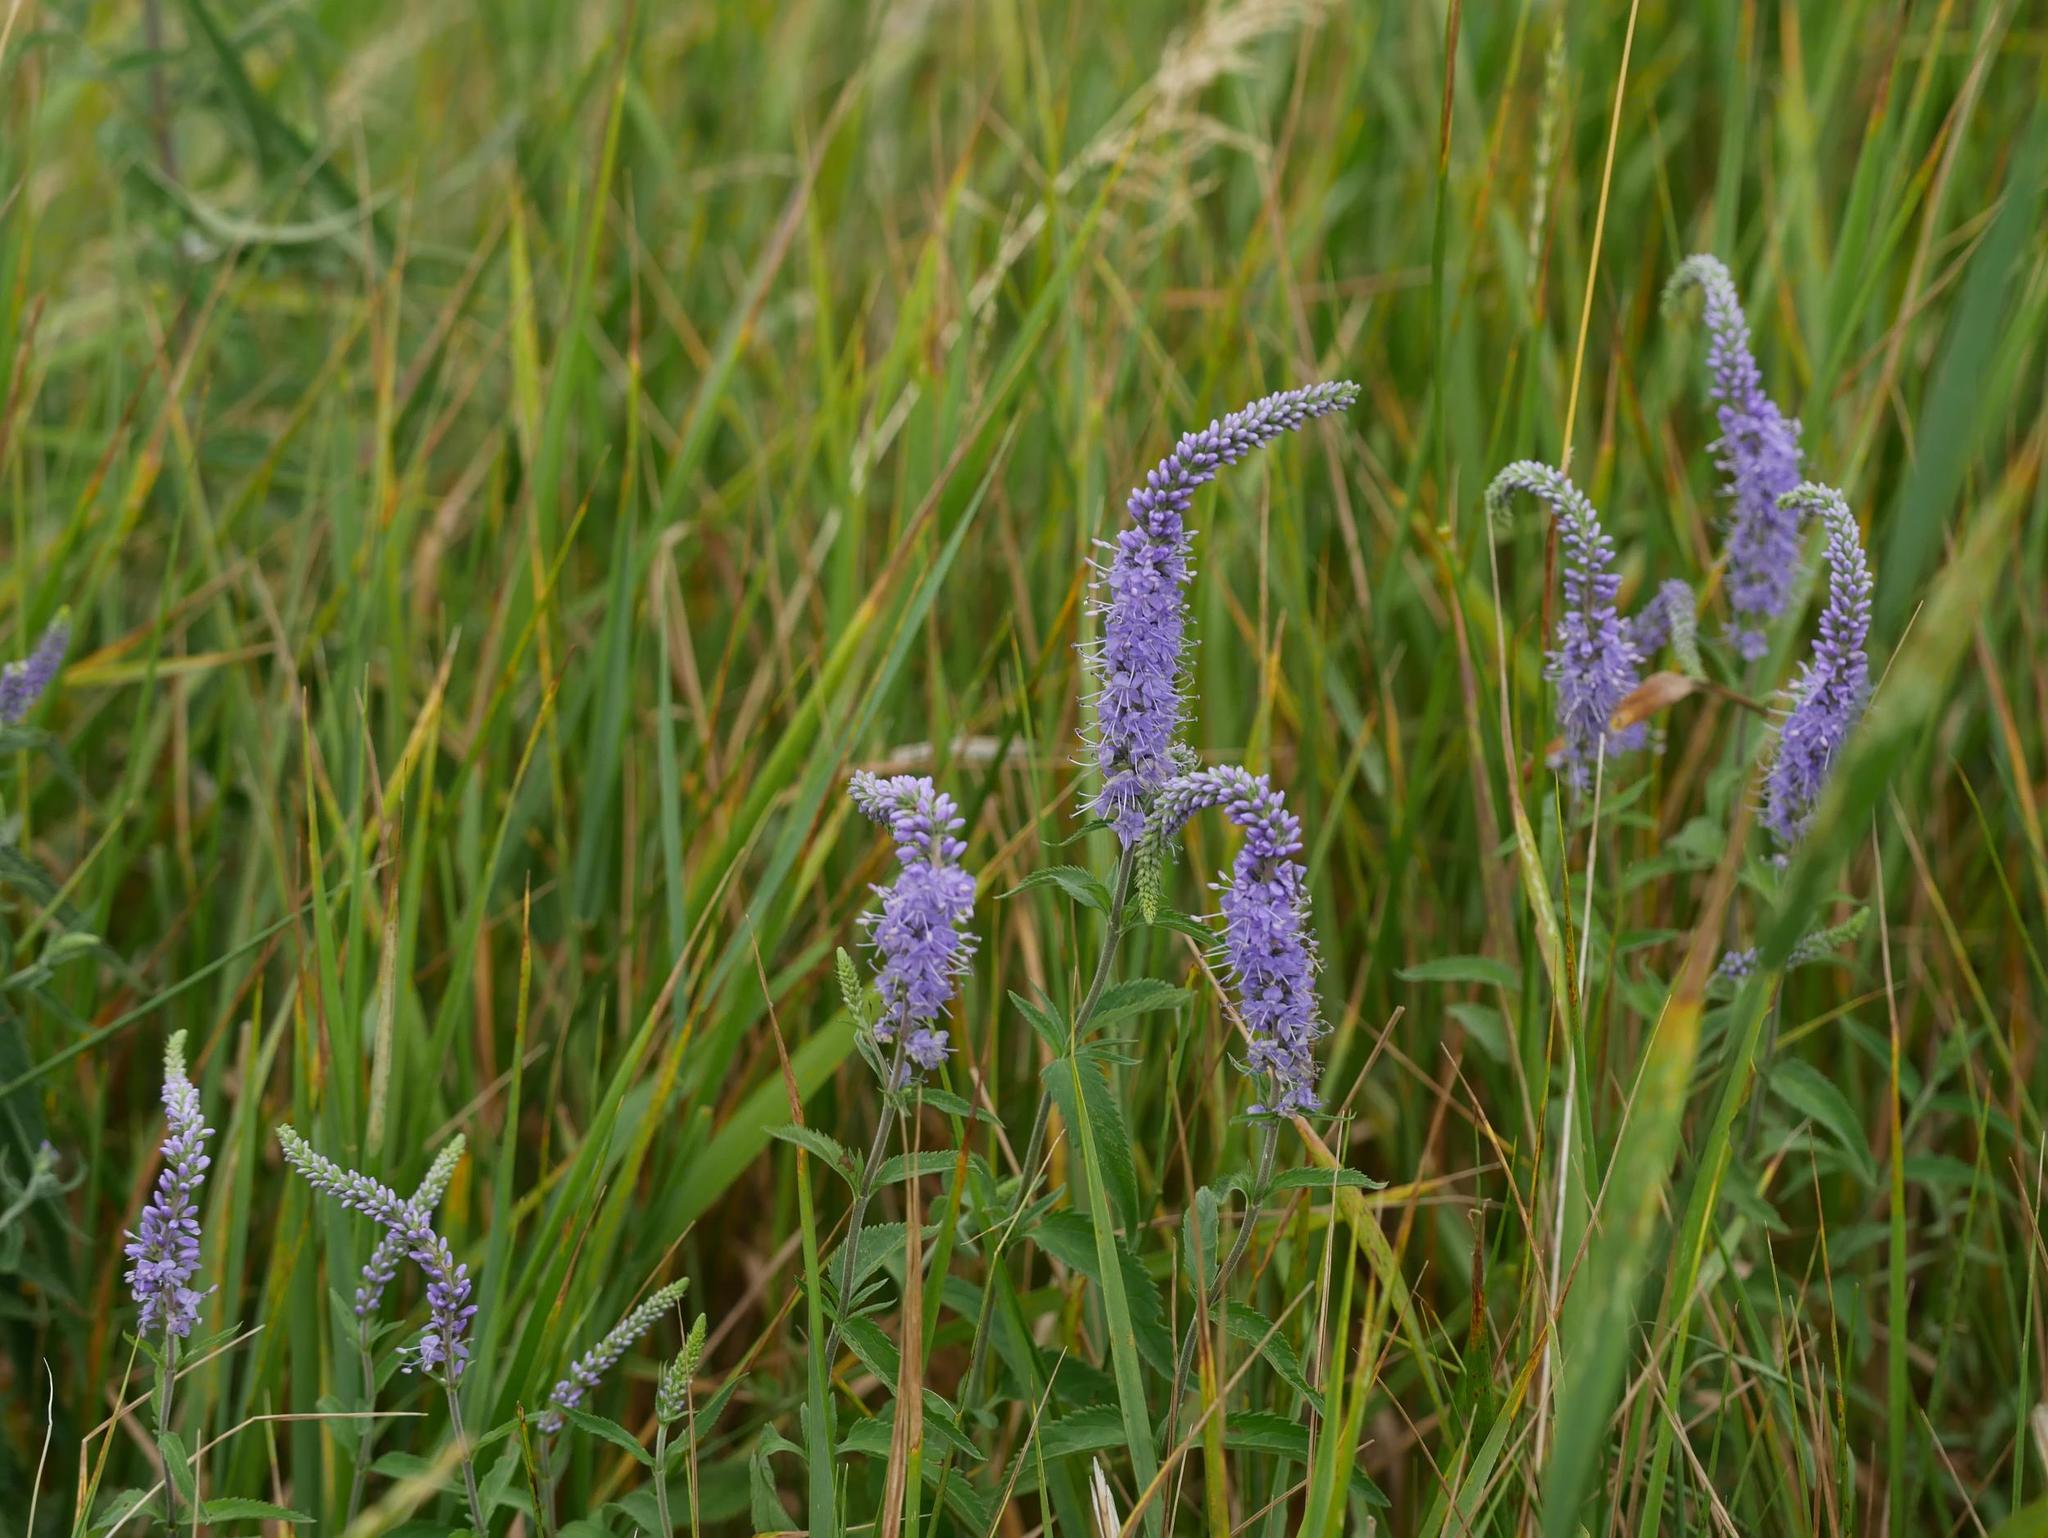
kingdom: Plantae
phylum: Tracheophyta
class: Magnoliopsida
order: Lamiales
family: Plantaginaceae
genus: Veronica
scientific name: Veronica longifolia
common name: Garden speedwell
